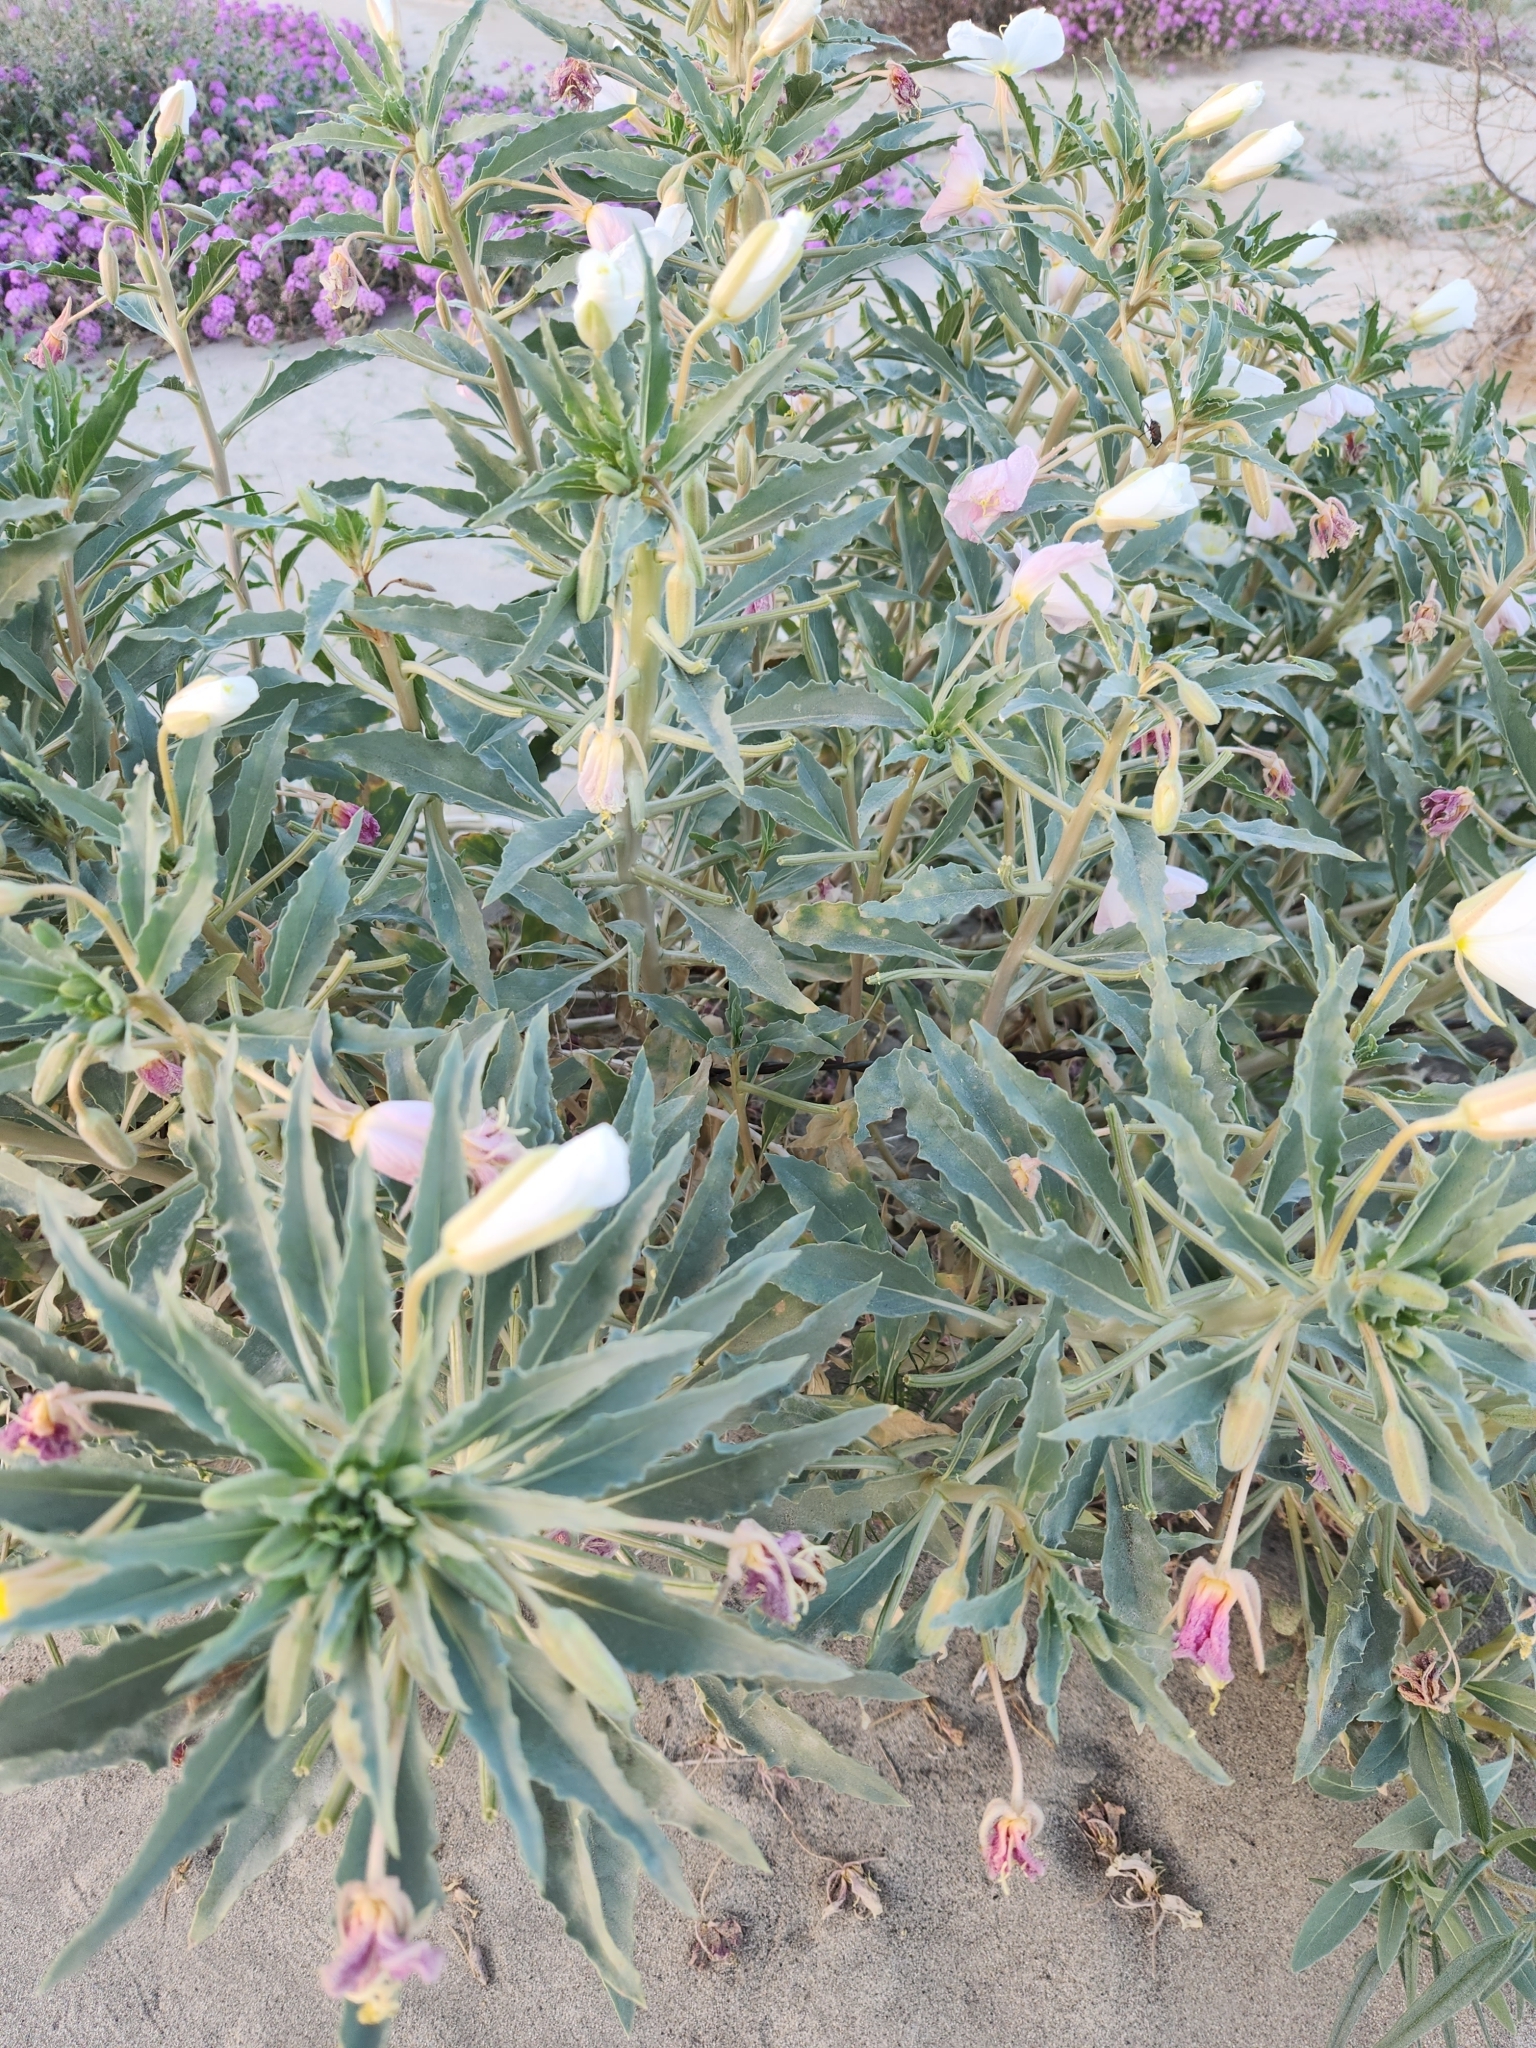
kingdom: Plantae
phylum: Tracheophyta
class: Magnoliopsida
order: Myrtales
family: Onagraceae
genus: Oenothera
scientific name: Oenothera deltoides
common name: Basket evening-primrose
